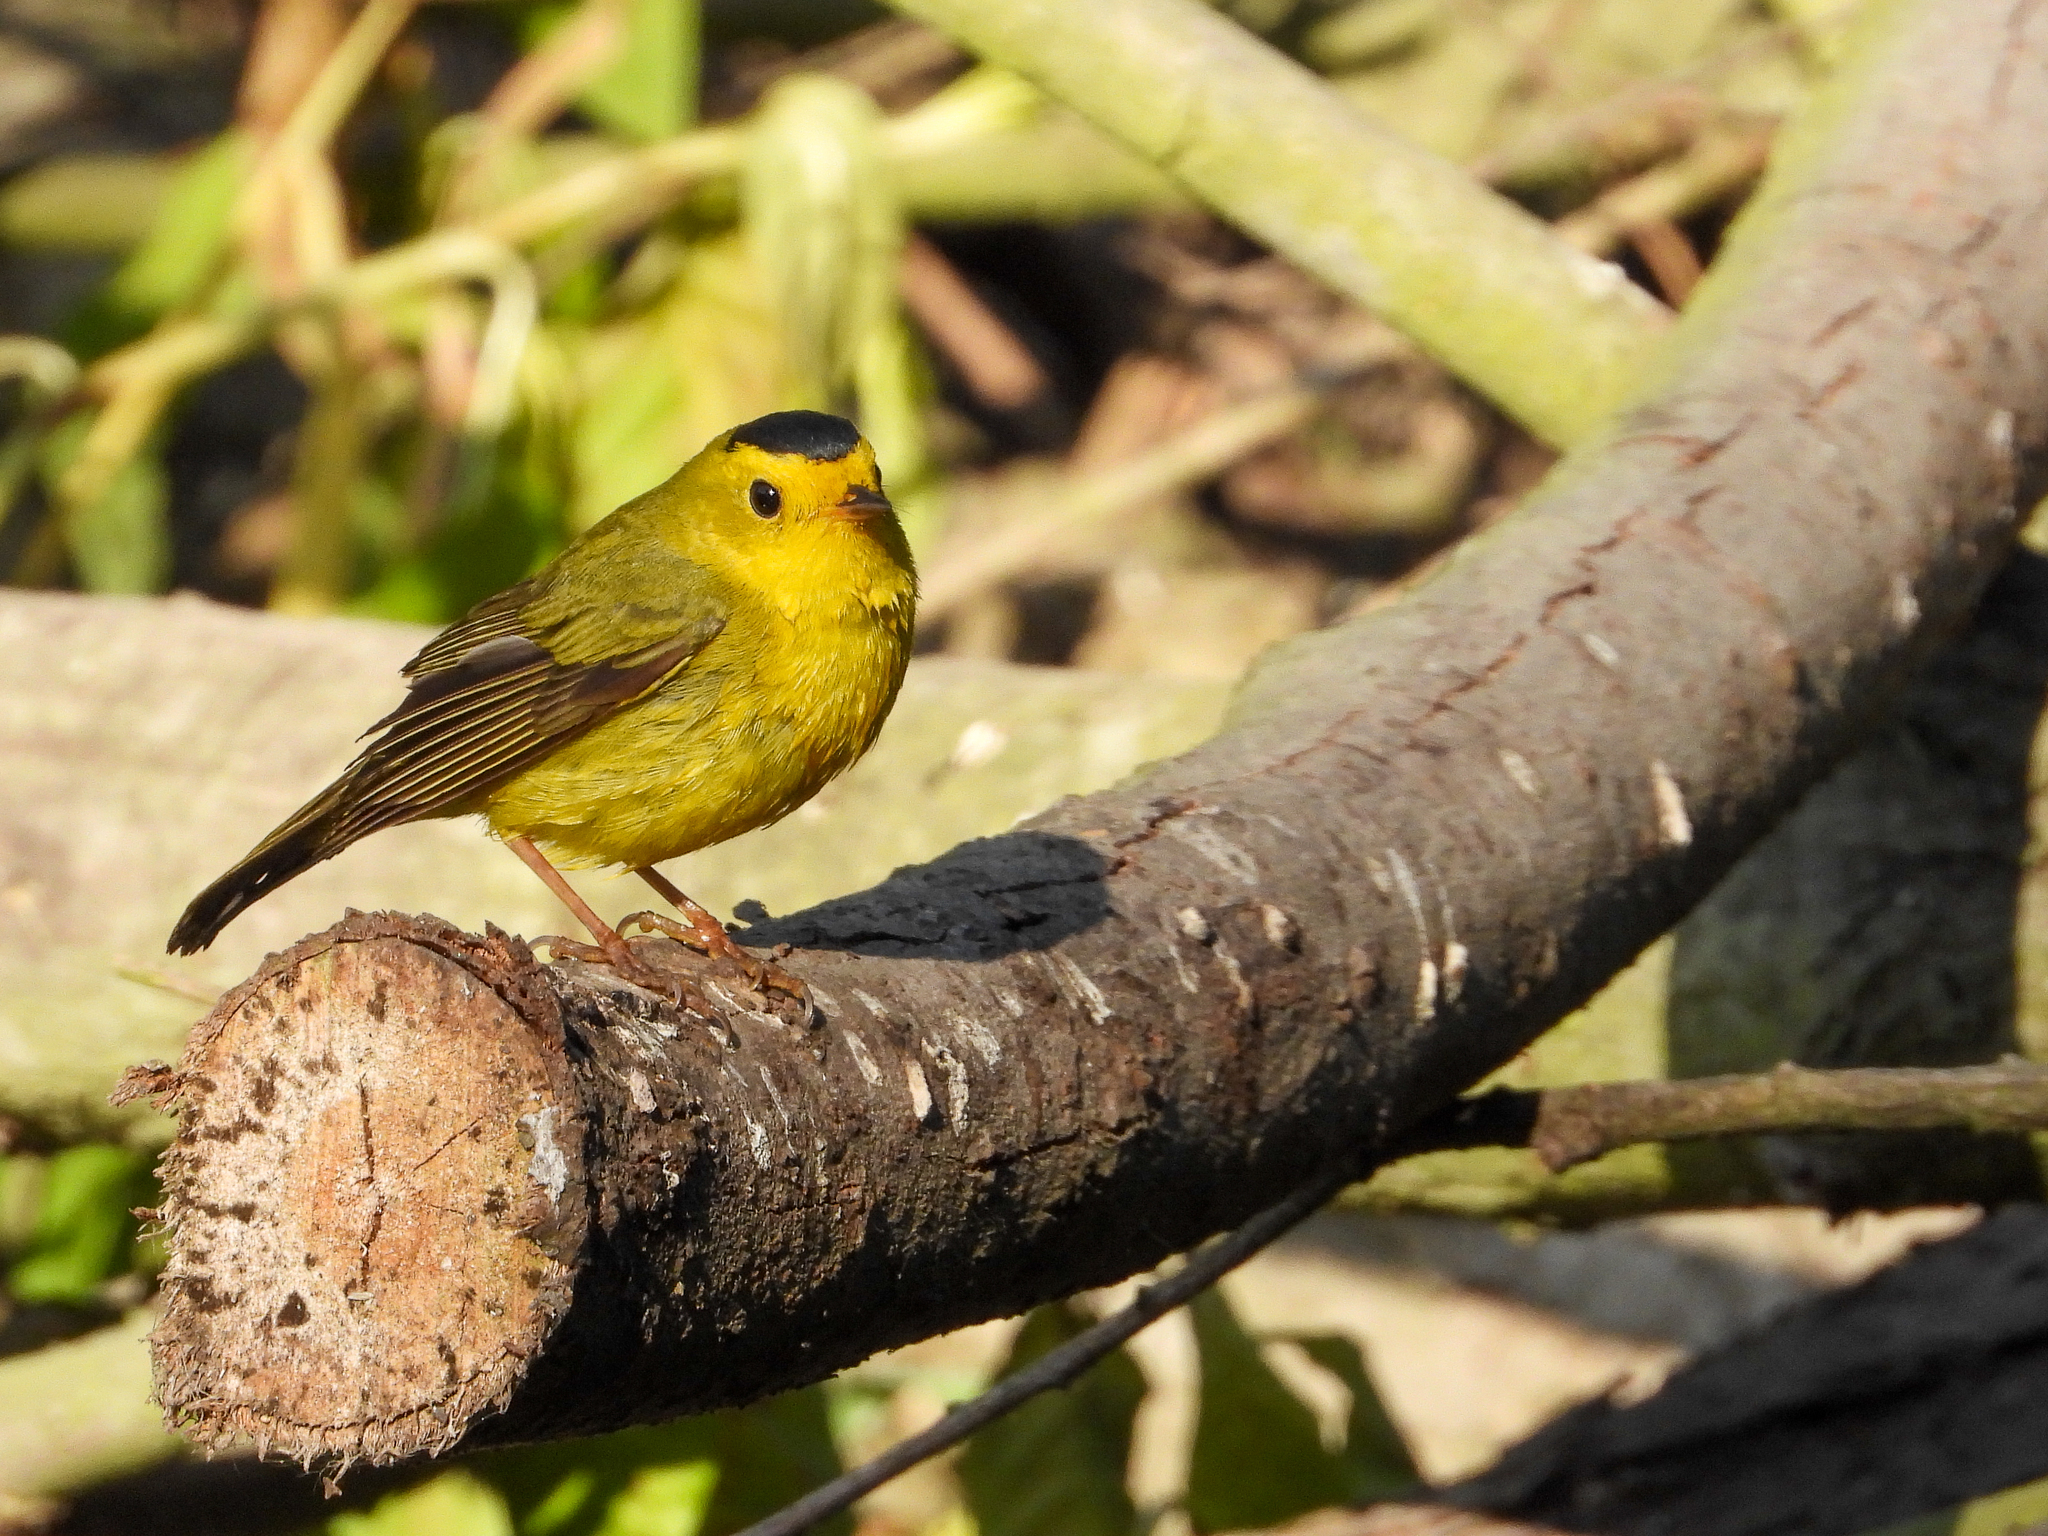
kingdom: Animalia
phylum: Chordata
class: Aves
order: Passeriformes
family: Parulidae
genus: Cardellina
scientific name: Cardellina pusilla
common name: Wilson's warbler
